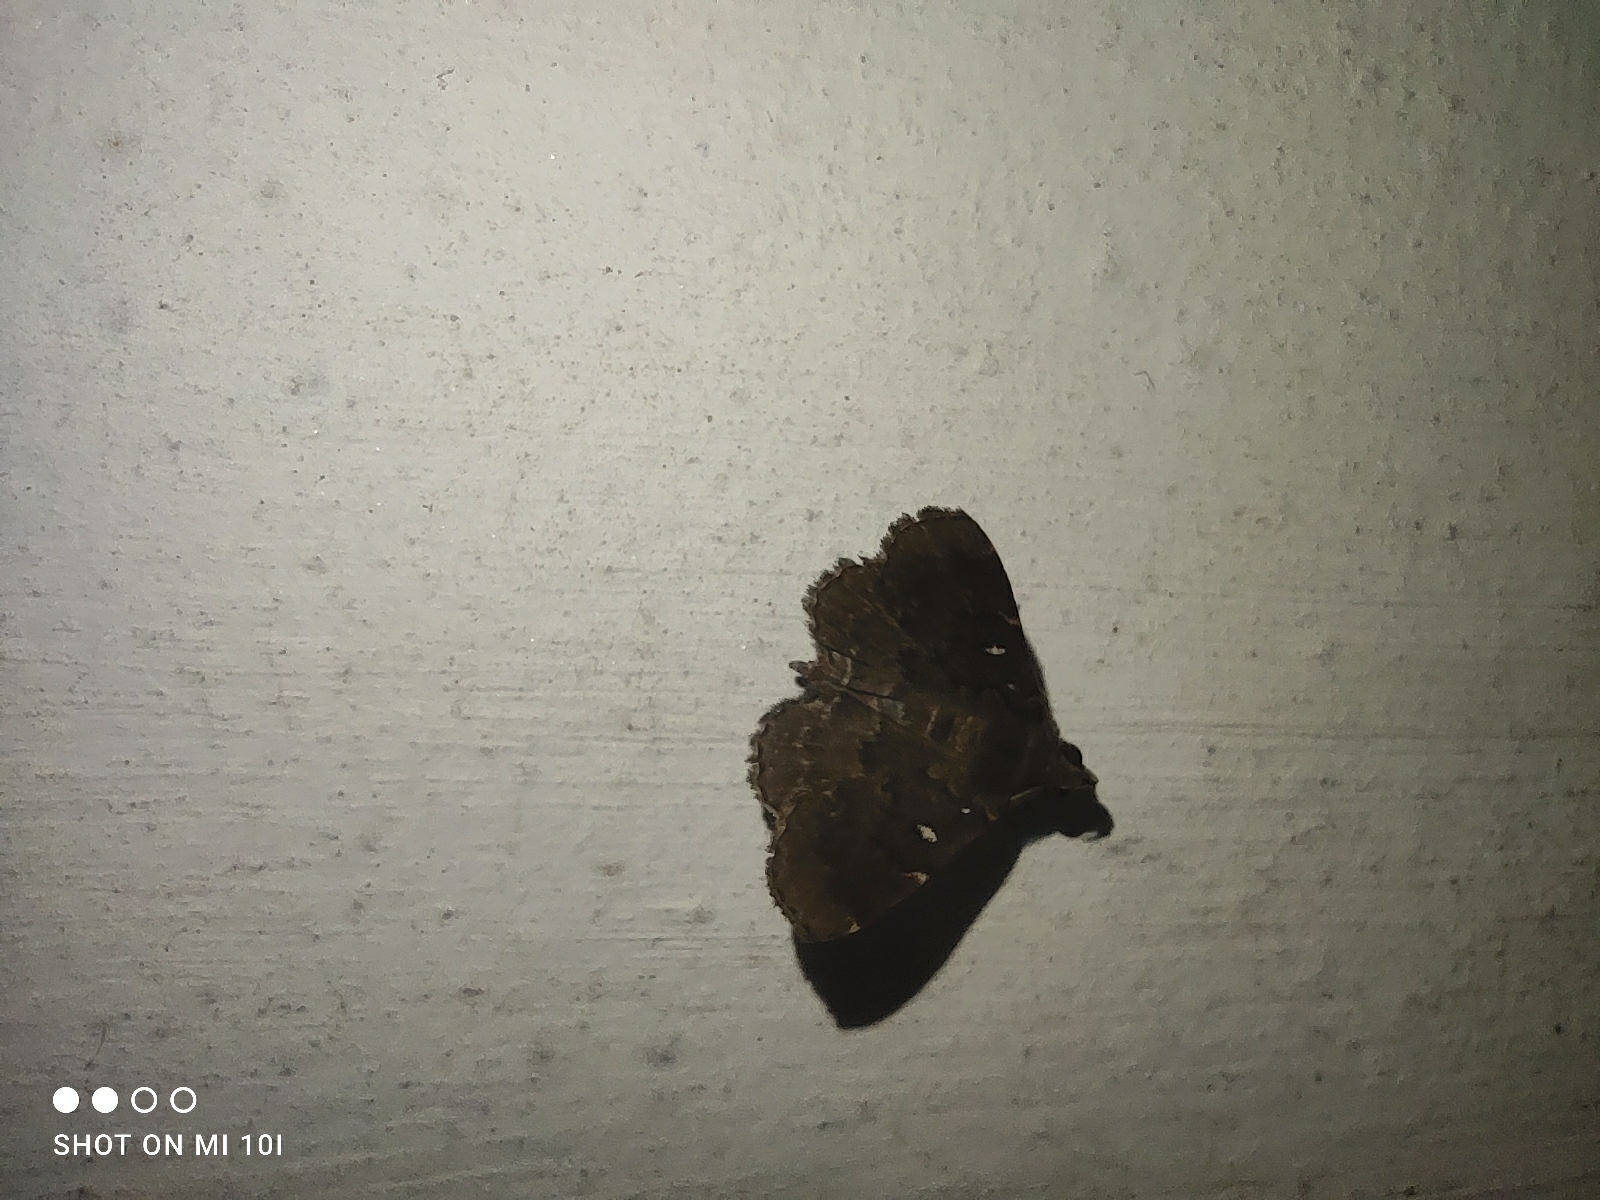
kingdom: Animalia
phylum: Arthropoda
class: Insecta
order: Lepidoptera
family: Erebidae
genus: Bocana
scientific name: Bocana manifestalis
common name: Moth
